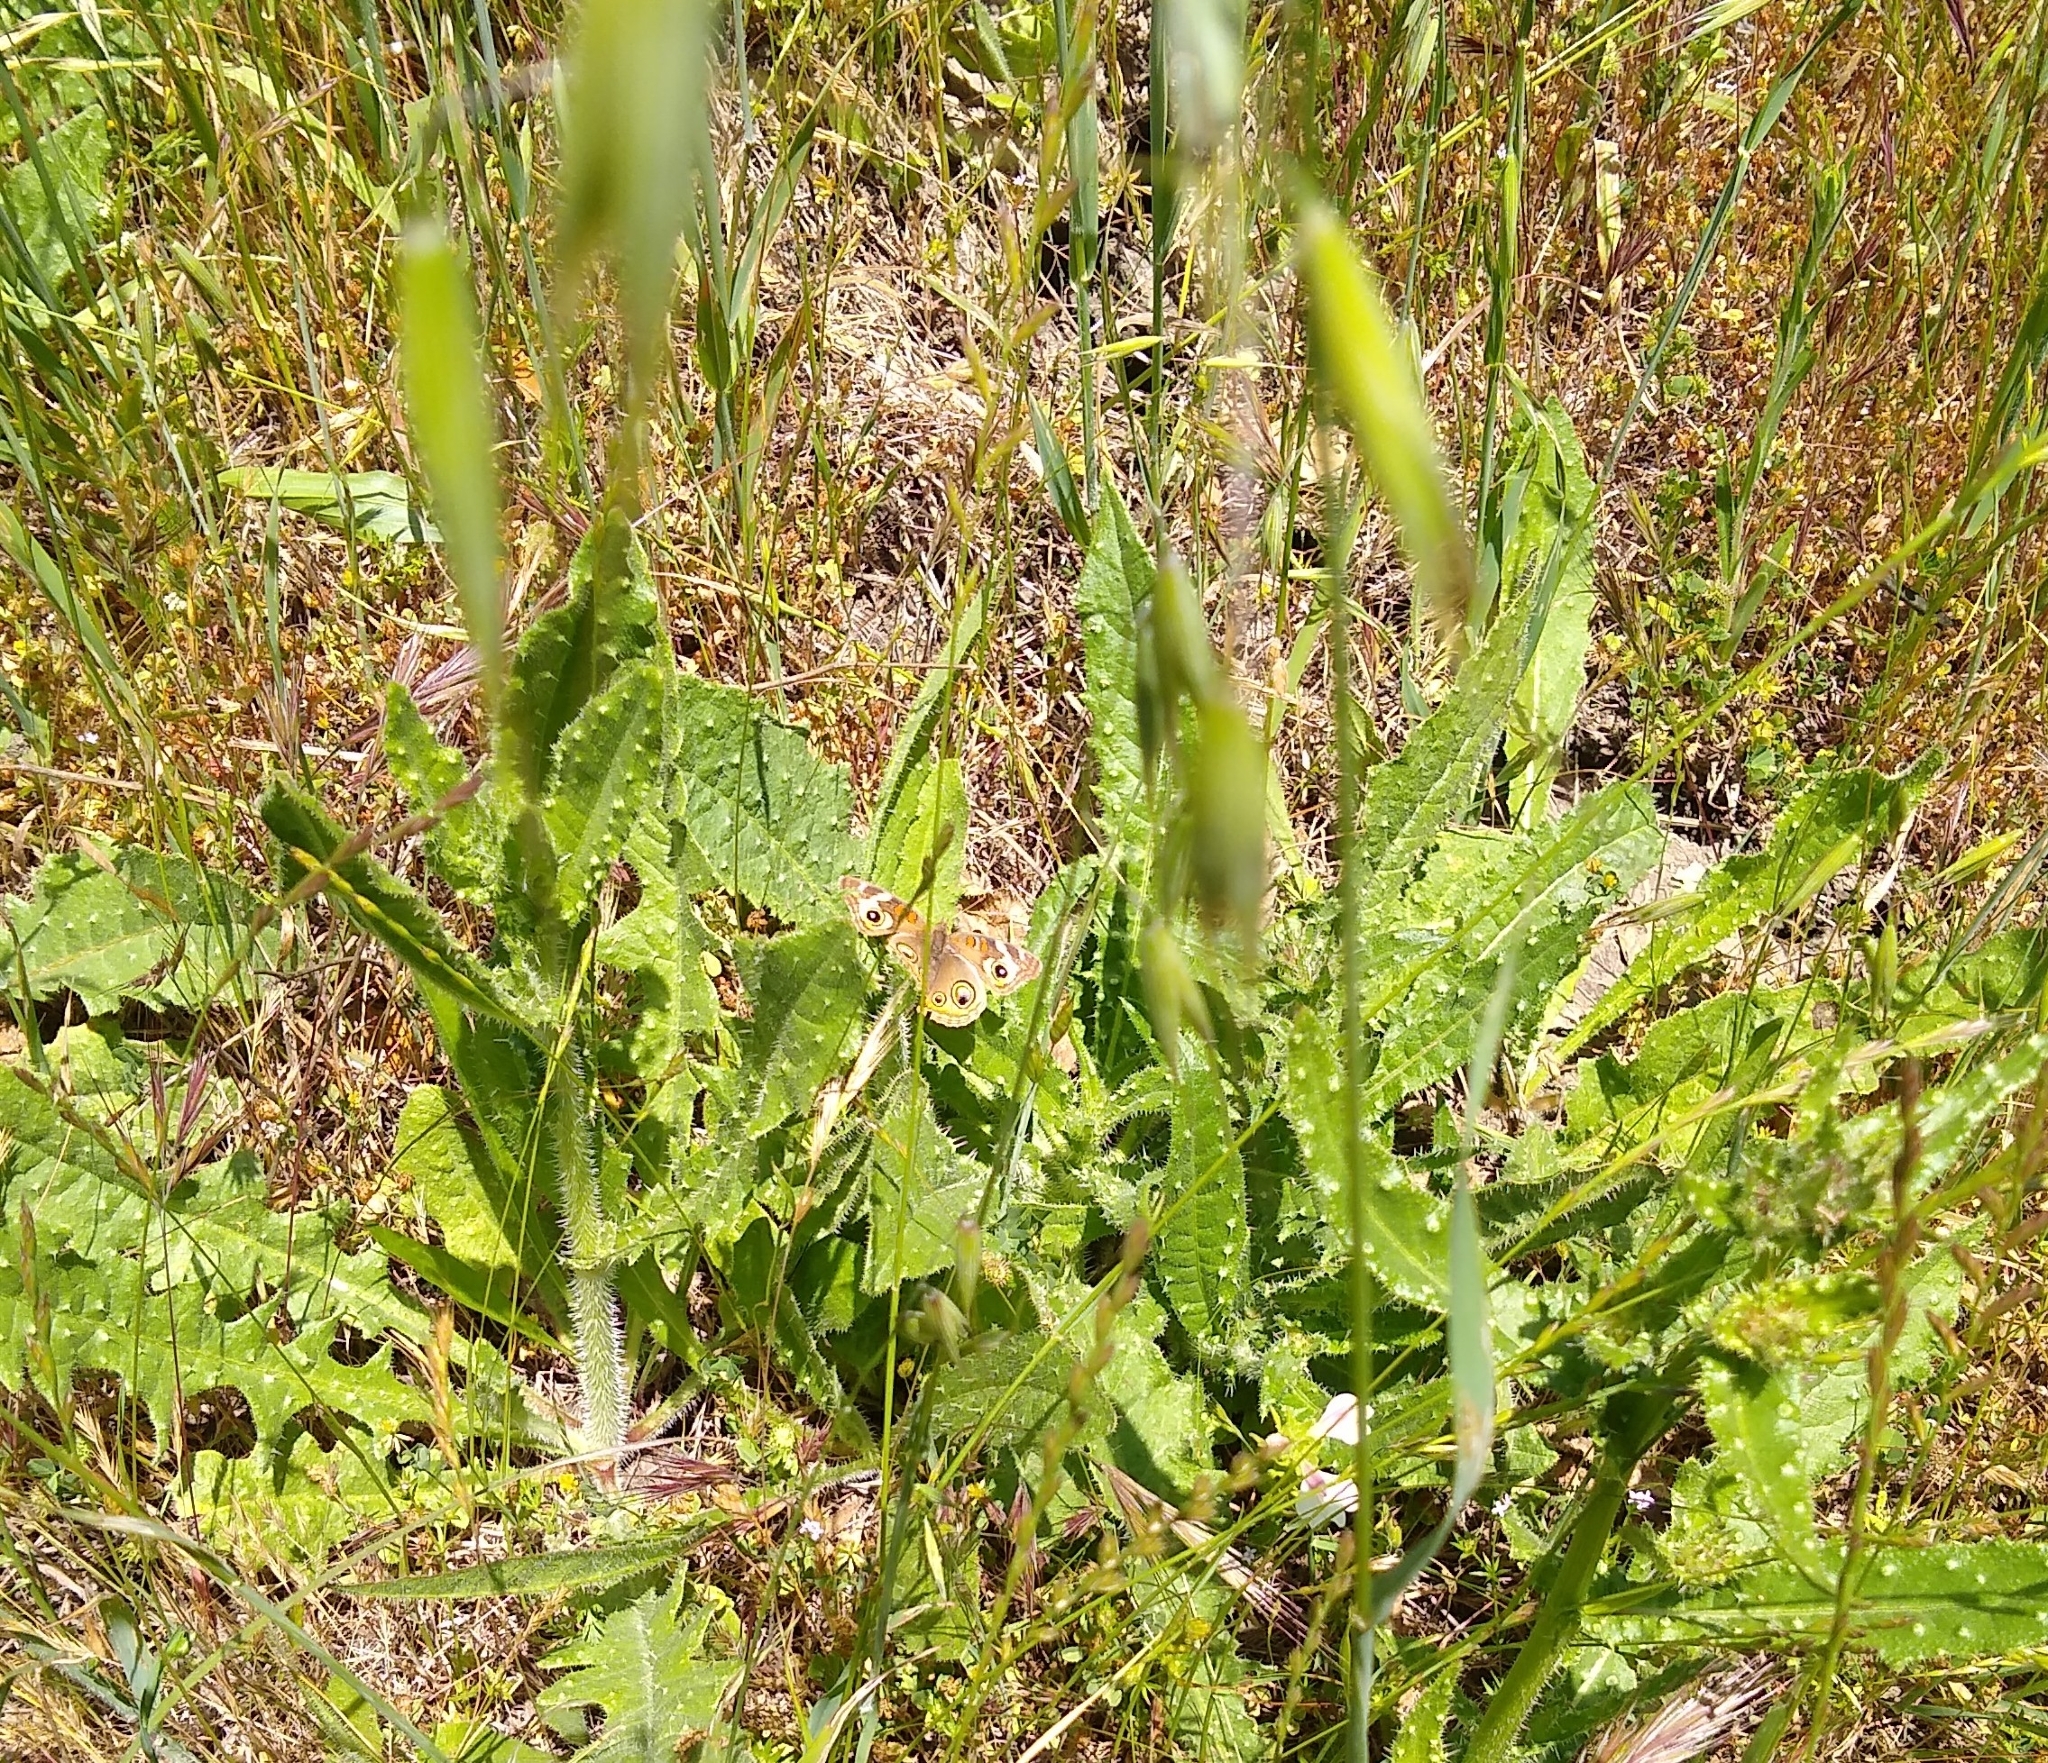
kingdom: Animalia
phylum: Arthropoda
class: Insecta
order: Lepidoptera
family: Nymphalidae
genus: Junonia
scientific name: Junonia grisea
